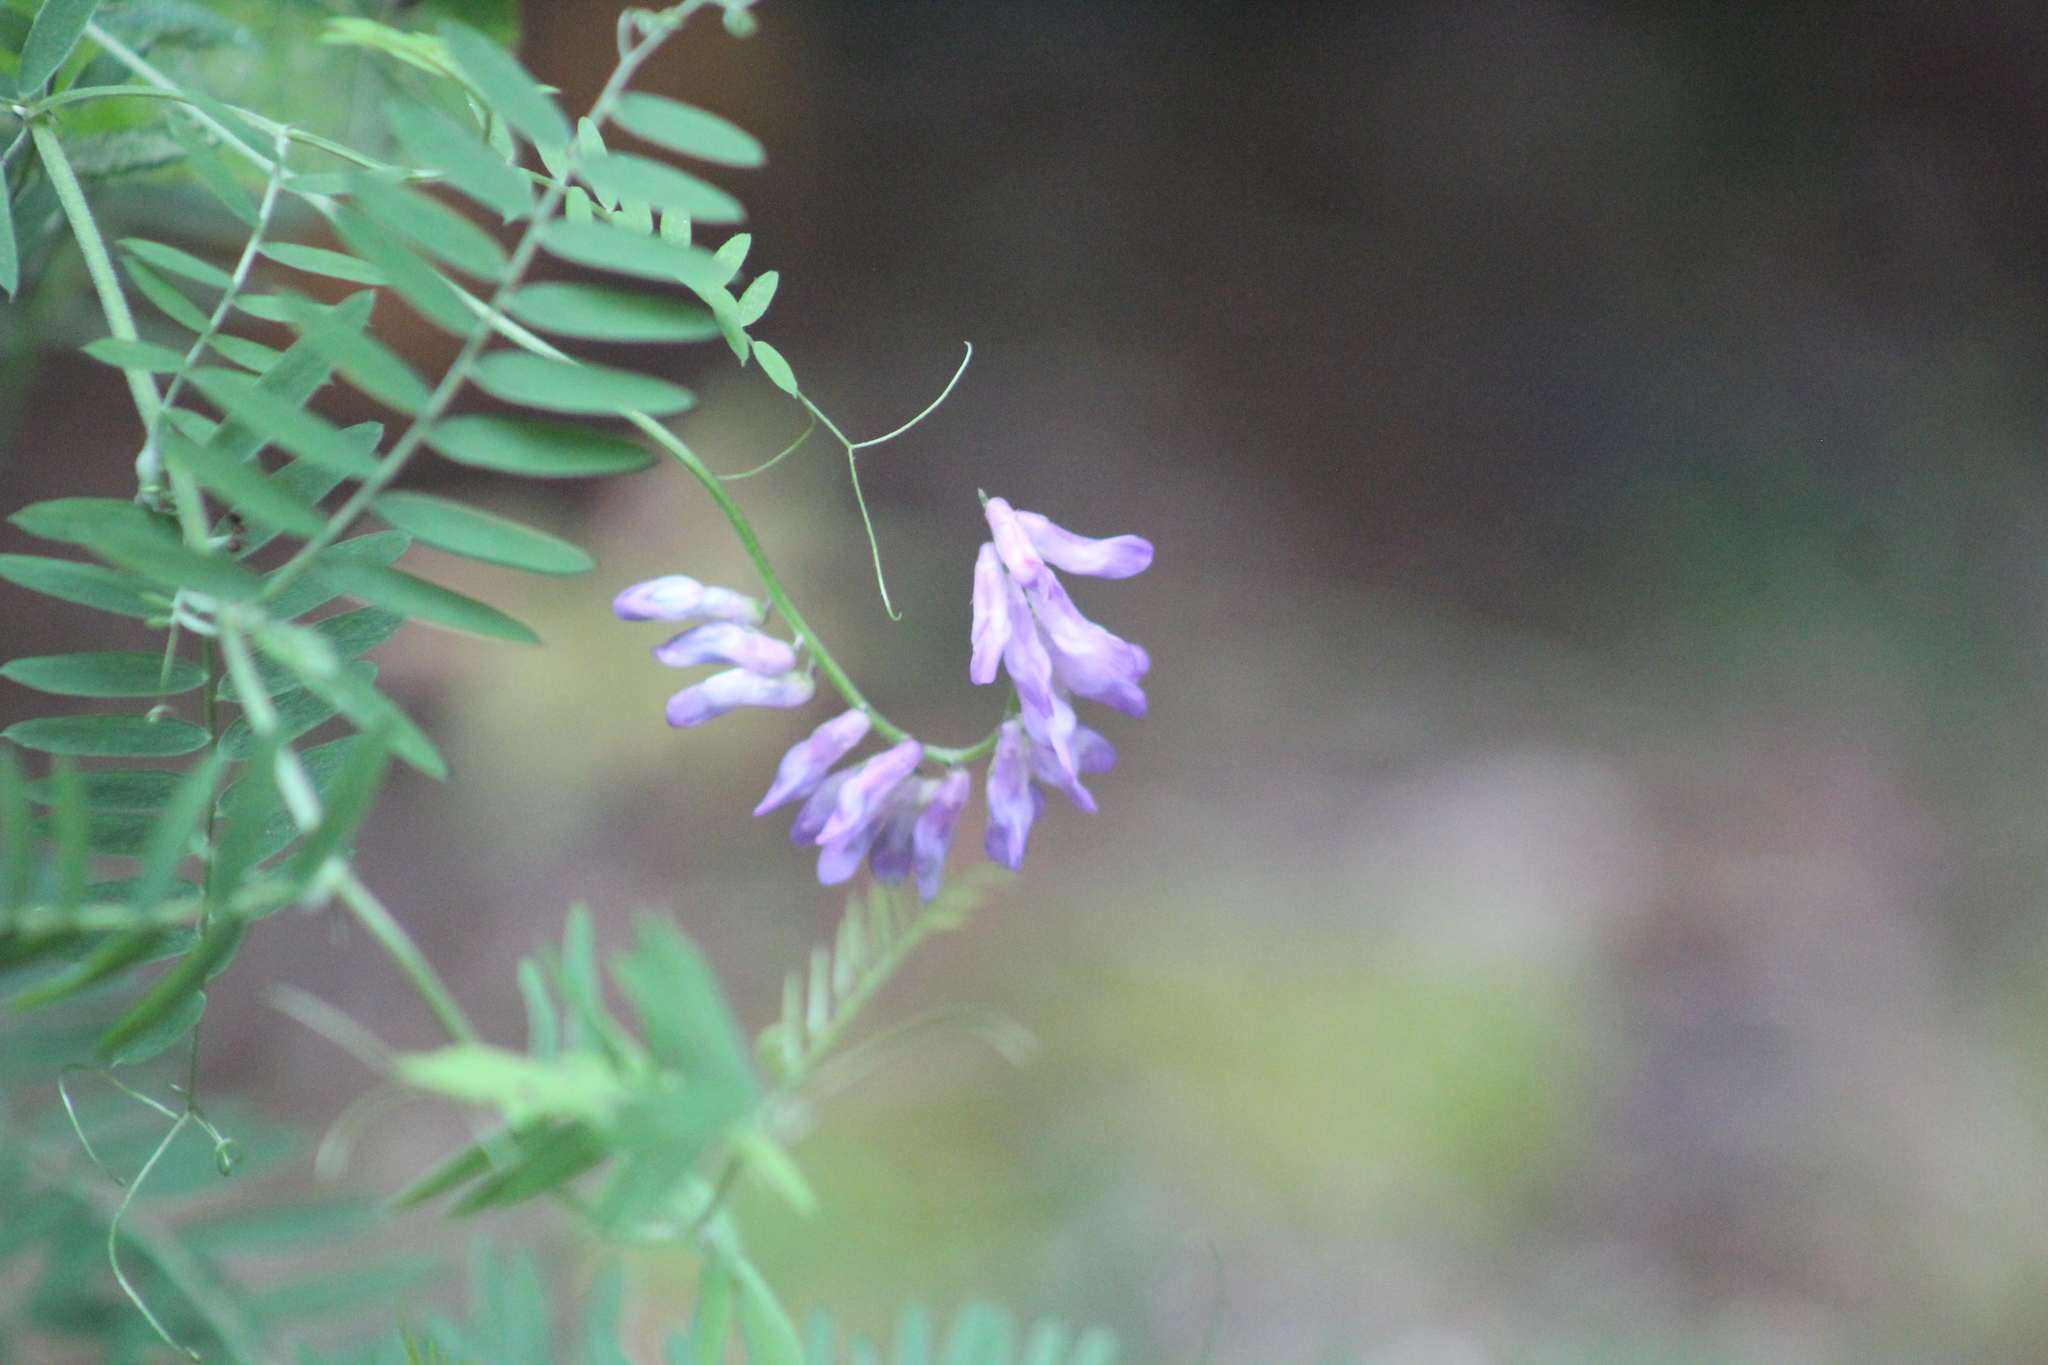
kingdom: Plantae
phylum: Tracheophyta
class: Magnoliopsida
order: Fabales
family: Fabaceae
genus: Vicia
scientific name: Vicia cracca
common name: Bird vetch
